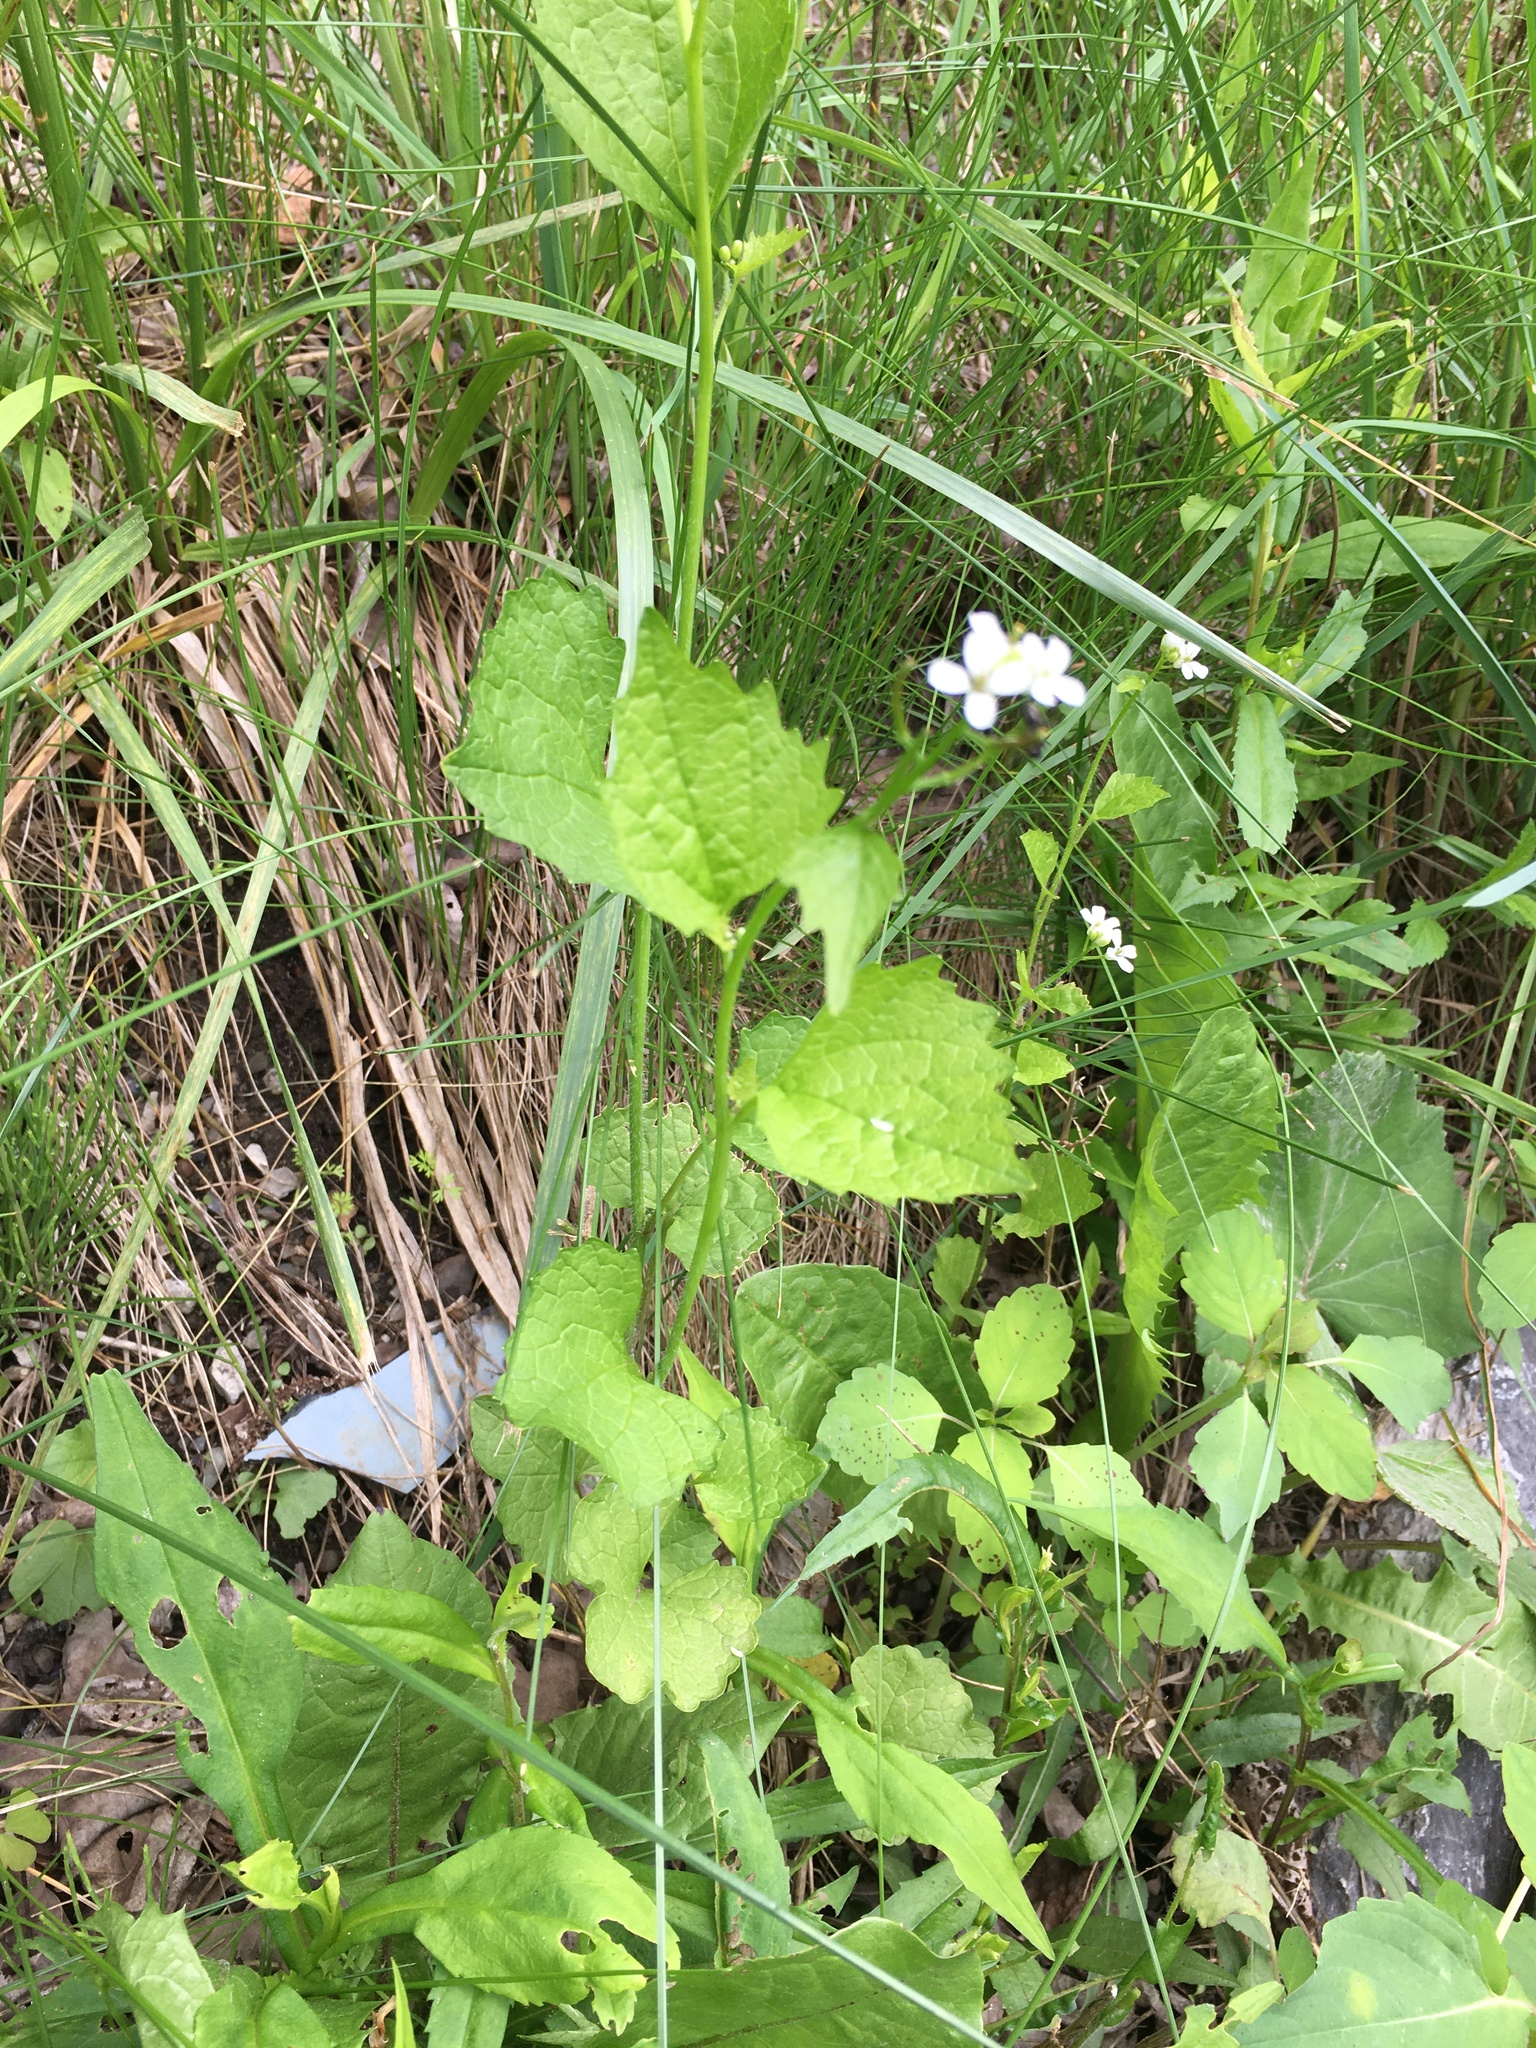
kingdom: Plantae
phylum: Tracheophyta
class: Magnoliopsida
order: Brassicales
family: Brassicaceae
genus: Alliaria
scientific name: Alliaria petiolata
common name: Garlic mustard
